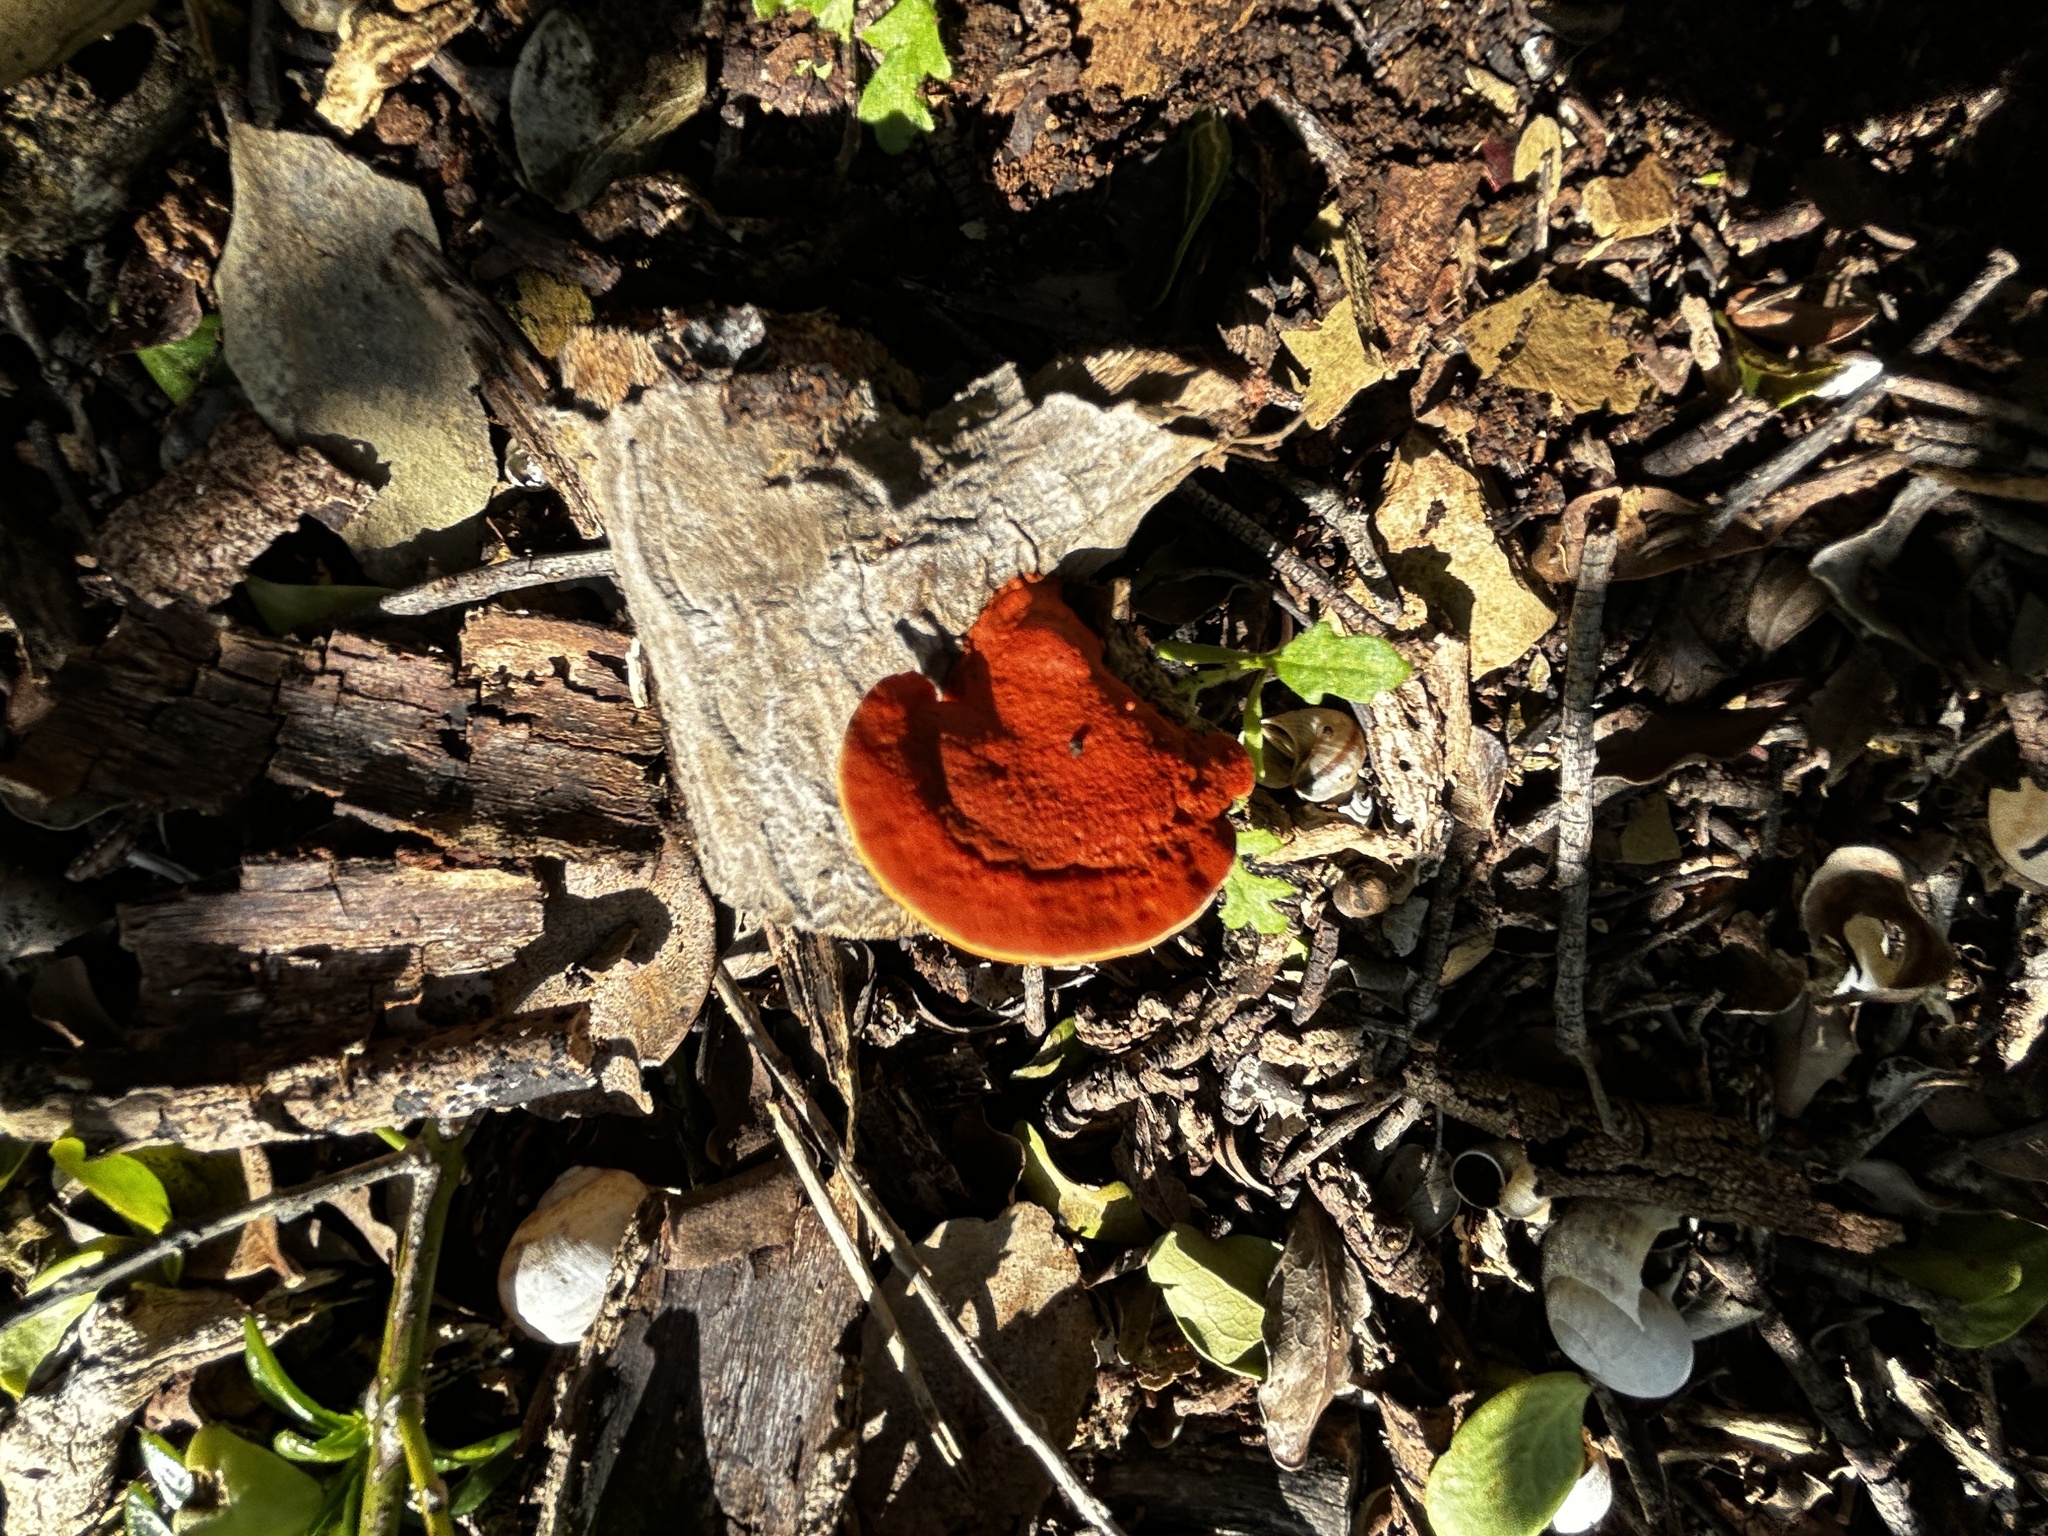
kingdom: Fungi
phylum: Basidiomycota
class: Agaricomycetes
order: Polyporales
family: Polyporaceae
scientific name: Polyporaceae
